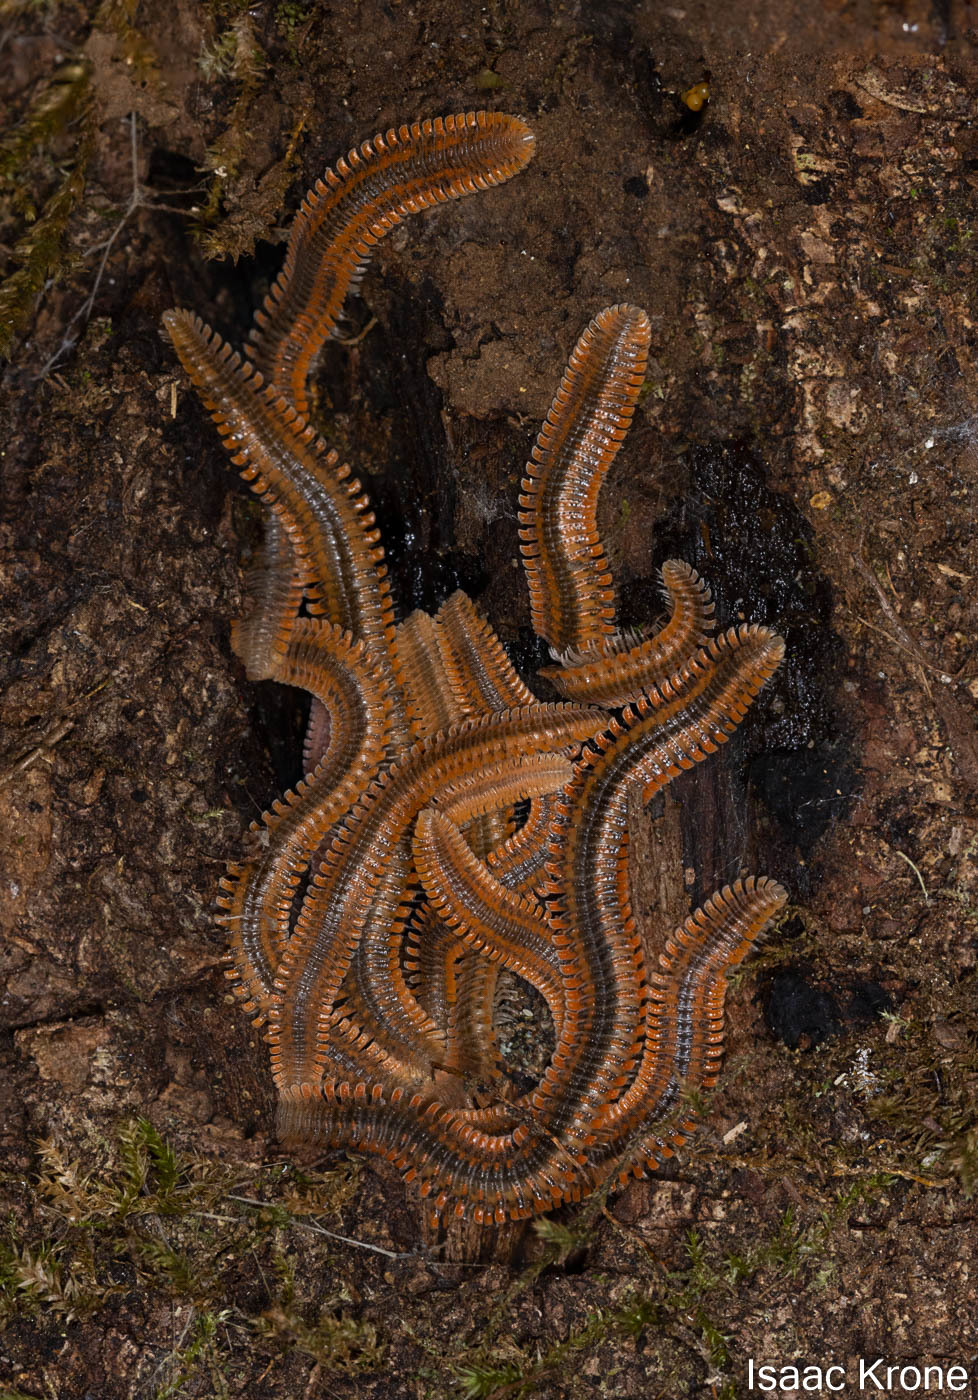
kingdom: Animalia
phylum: Arthropoda
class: Diplopoda
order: Platydesmida
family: Andrognathidae
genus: Brachycybe
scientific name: Brachycybe producta
